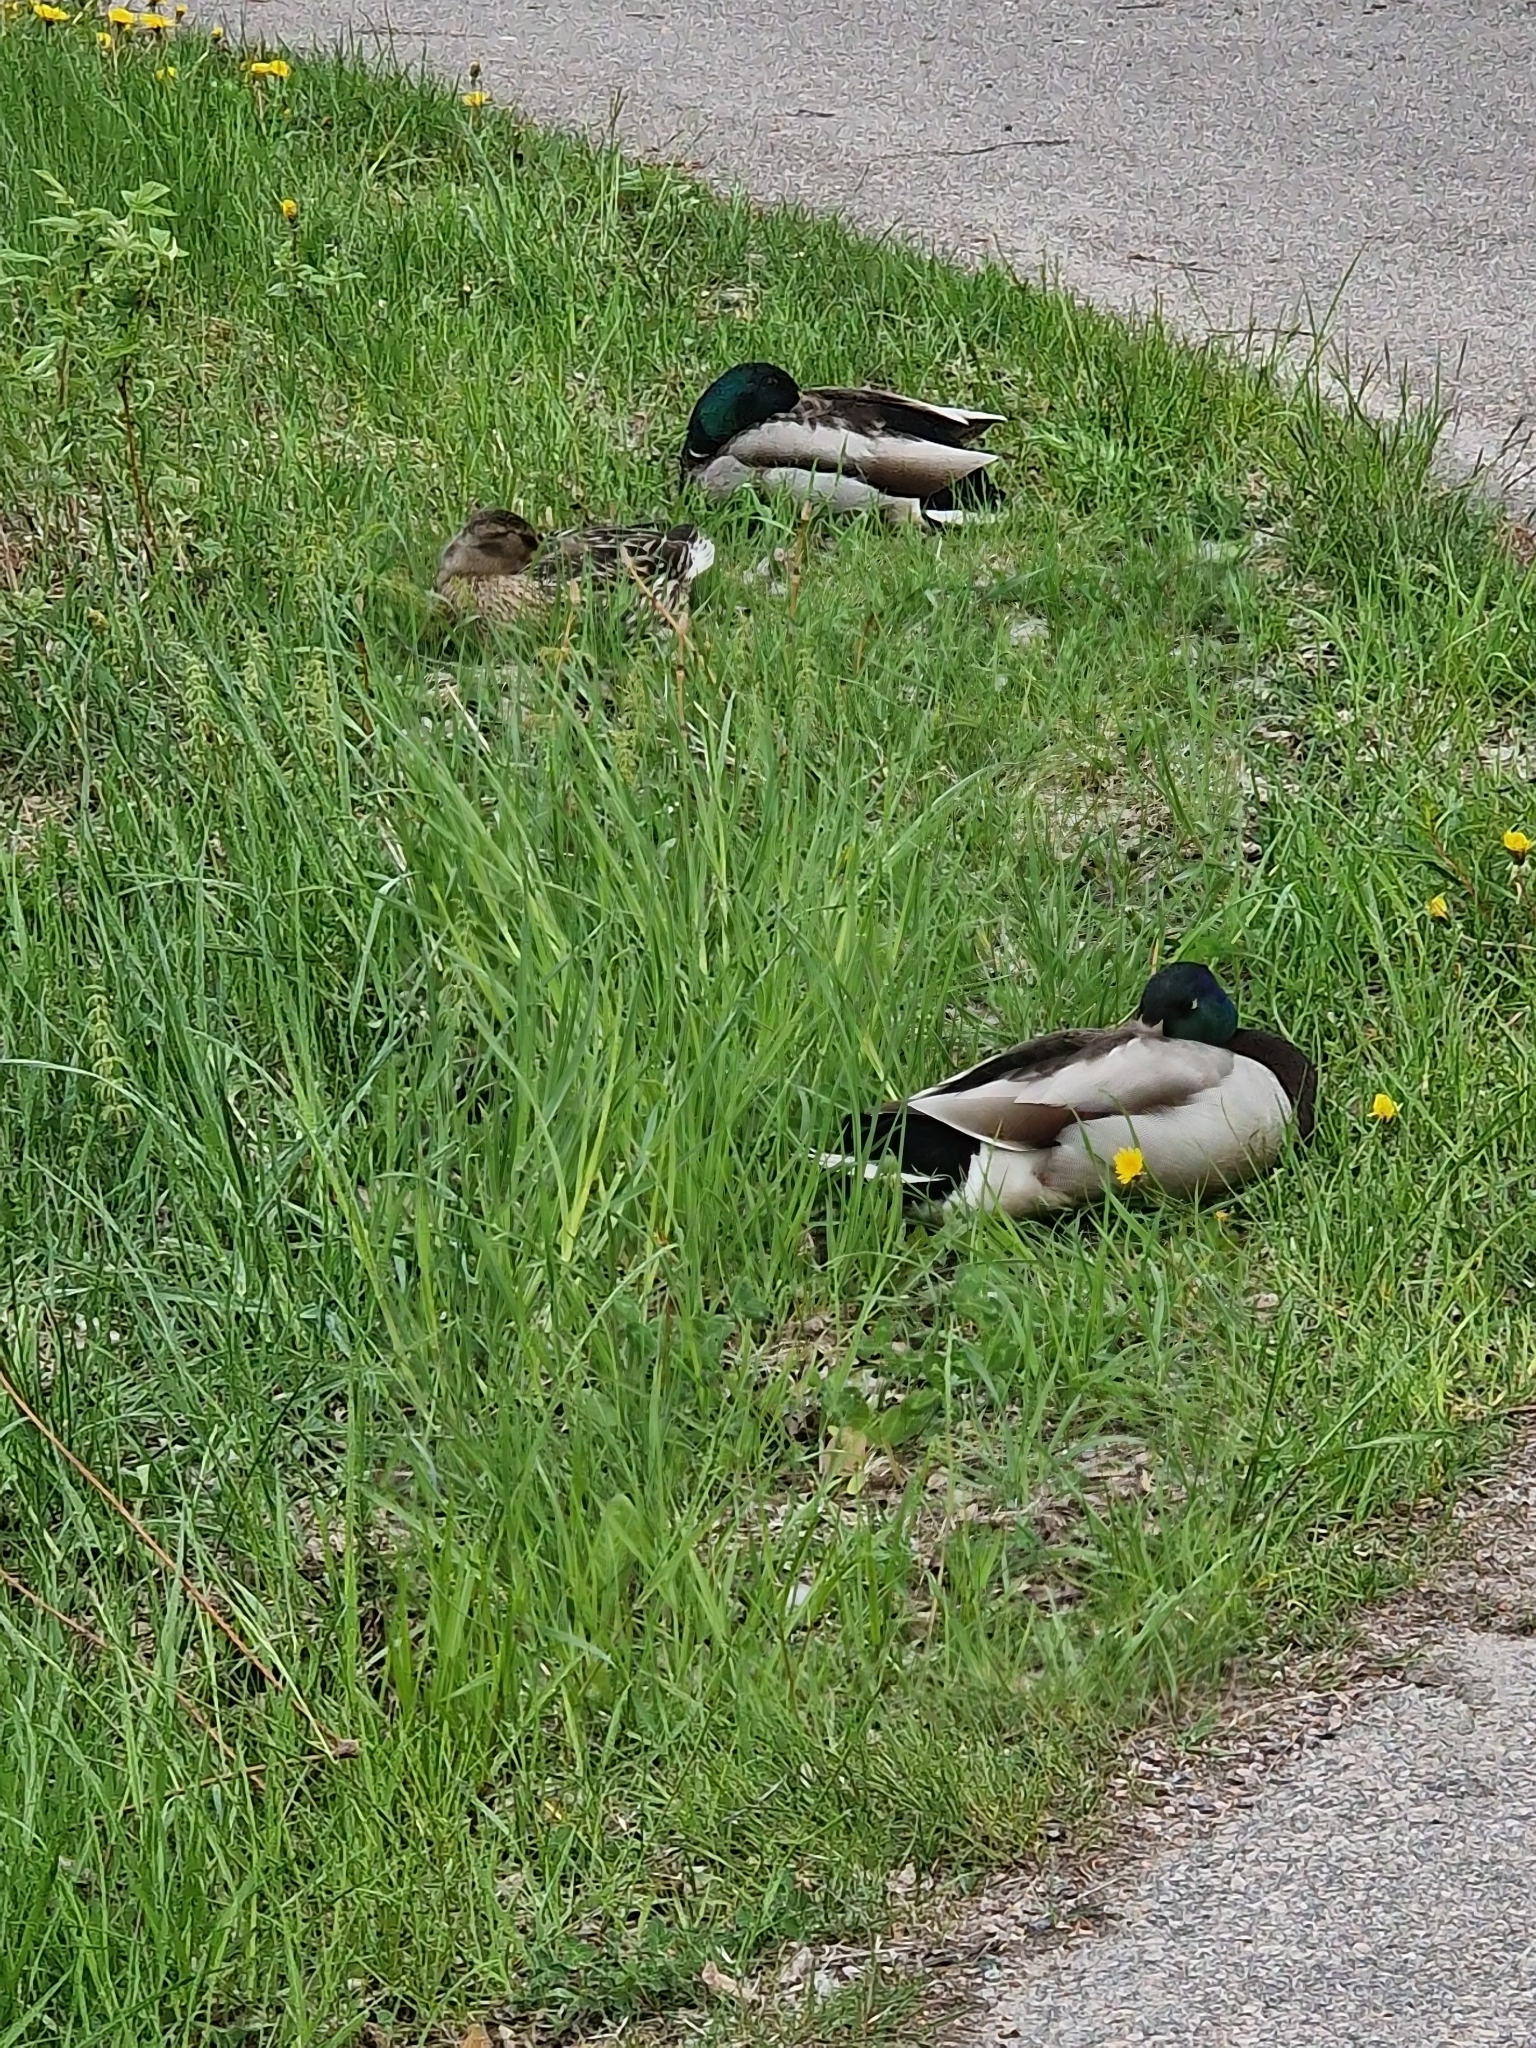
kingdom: Animalia
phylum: Chordata
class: Aves
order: Anseriformes
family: Anatidae
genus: Anas
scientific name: Anas platyrhynchos
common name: Mallard
